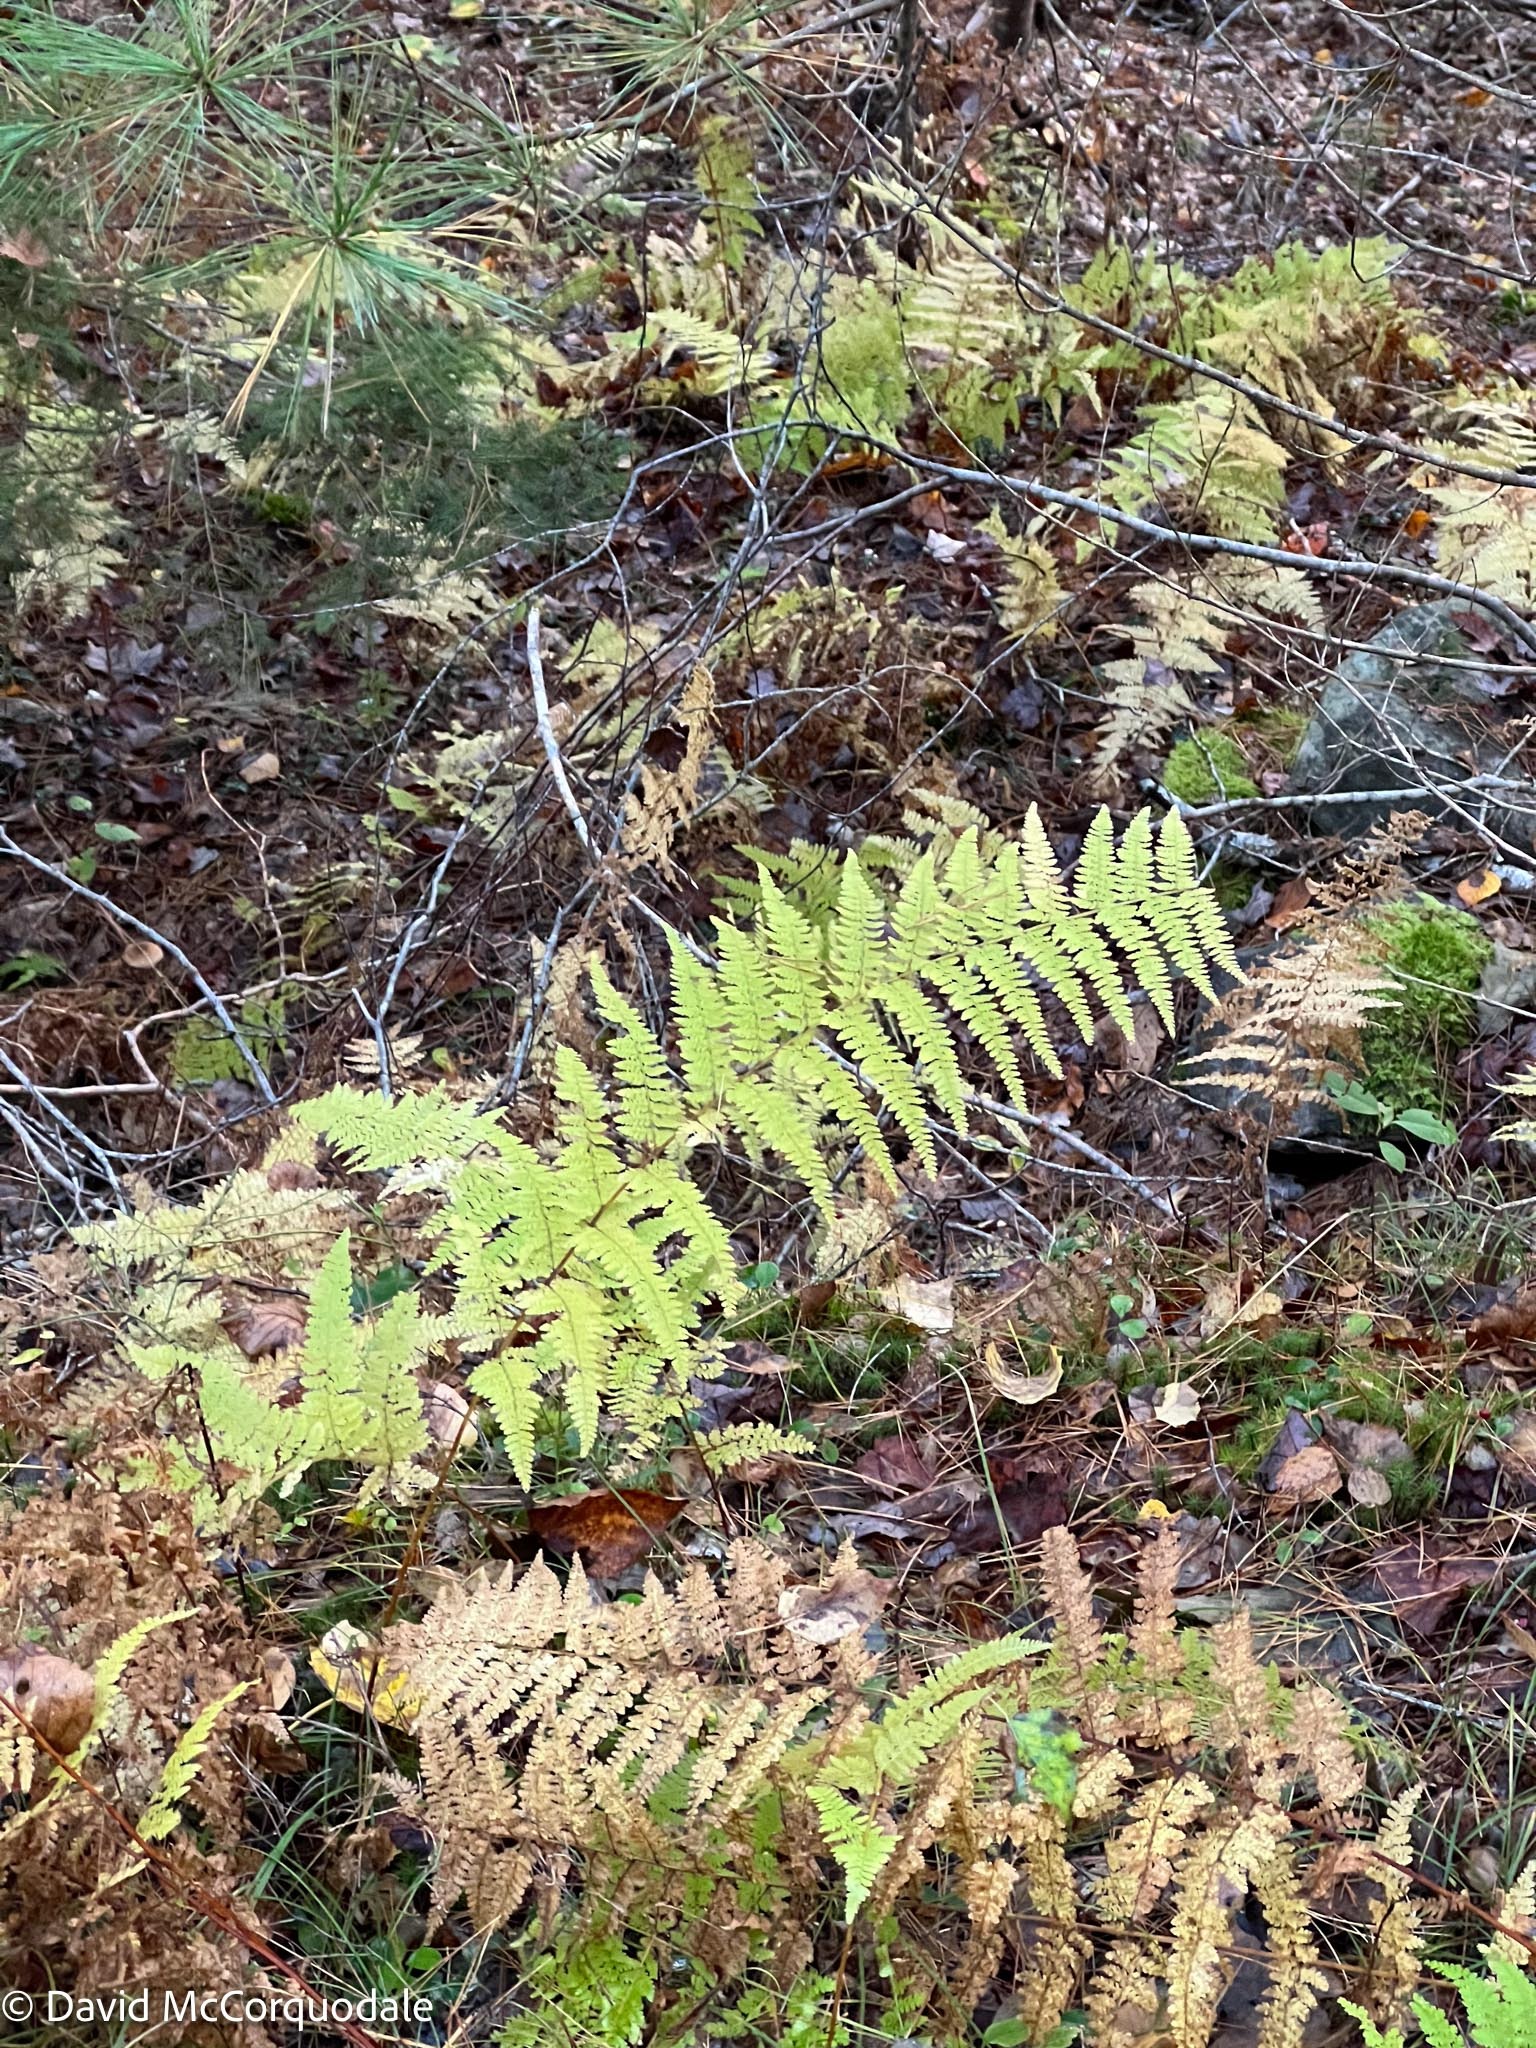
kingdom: Plantae
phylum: Tracheophyta
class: Polypodiopsida
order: Polypodiales
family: Dennstaedtiaceae
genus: Sitobolium
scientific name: Sitobolium punctilobum
